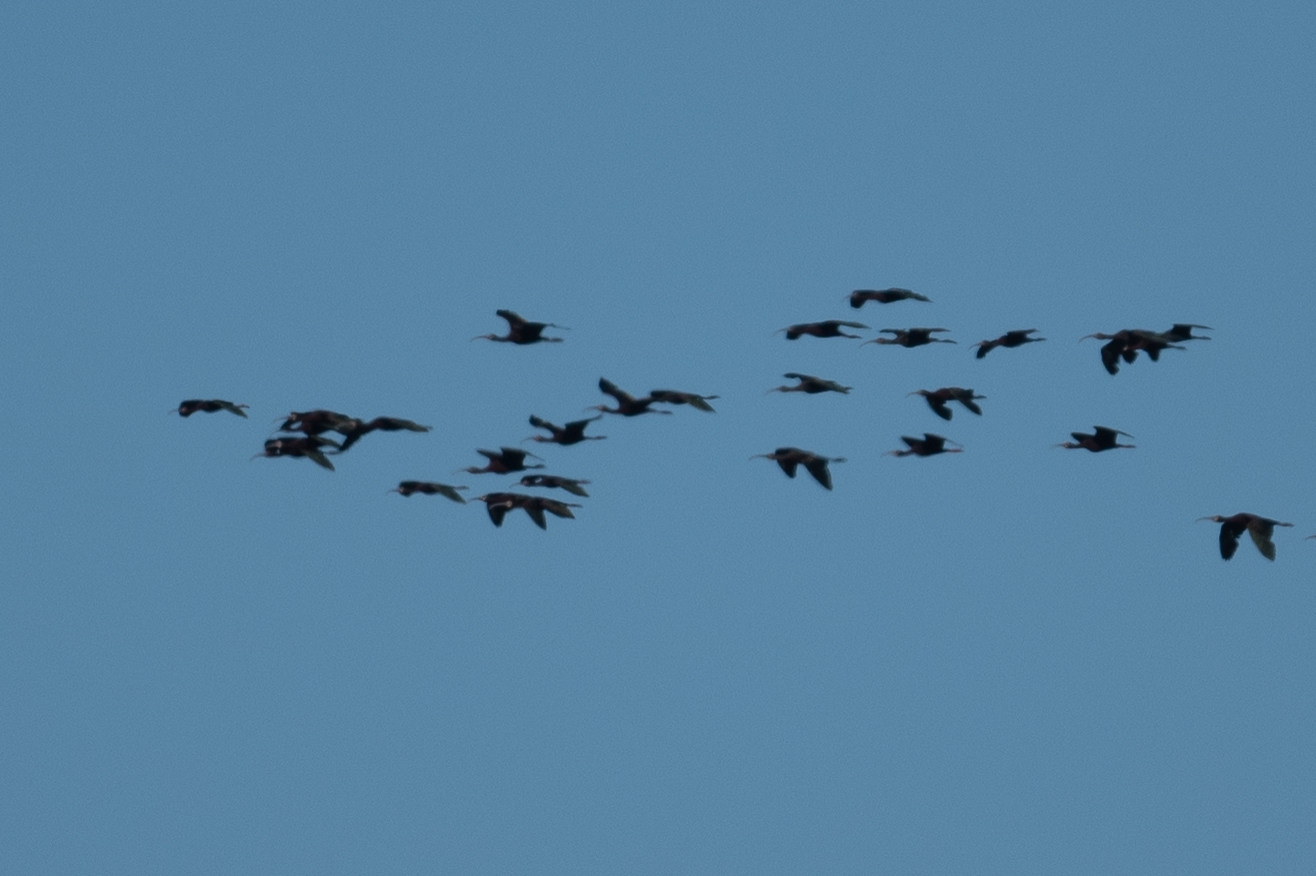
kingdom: Animalia
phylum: Chordata
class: Aves
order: Pelecaniformes
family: Threskiornithidae
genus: Plegadis
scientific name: Plegadis chihi
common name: White-faced ibis
